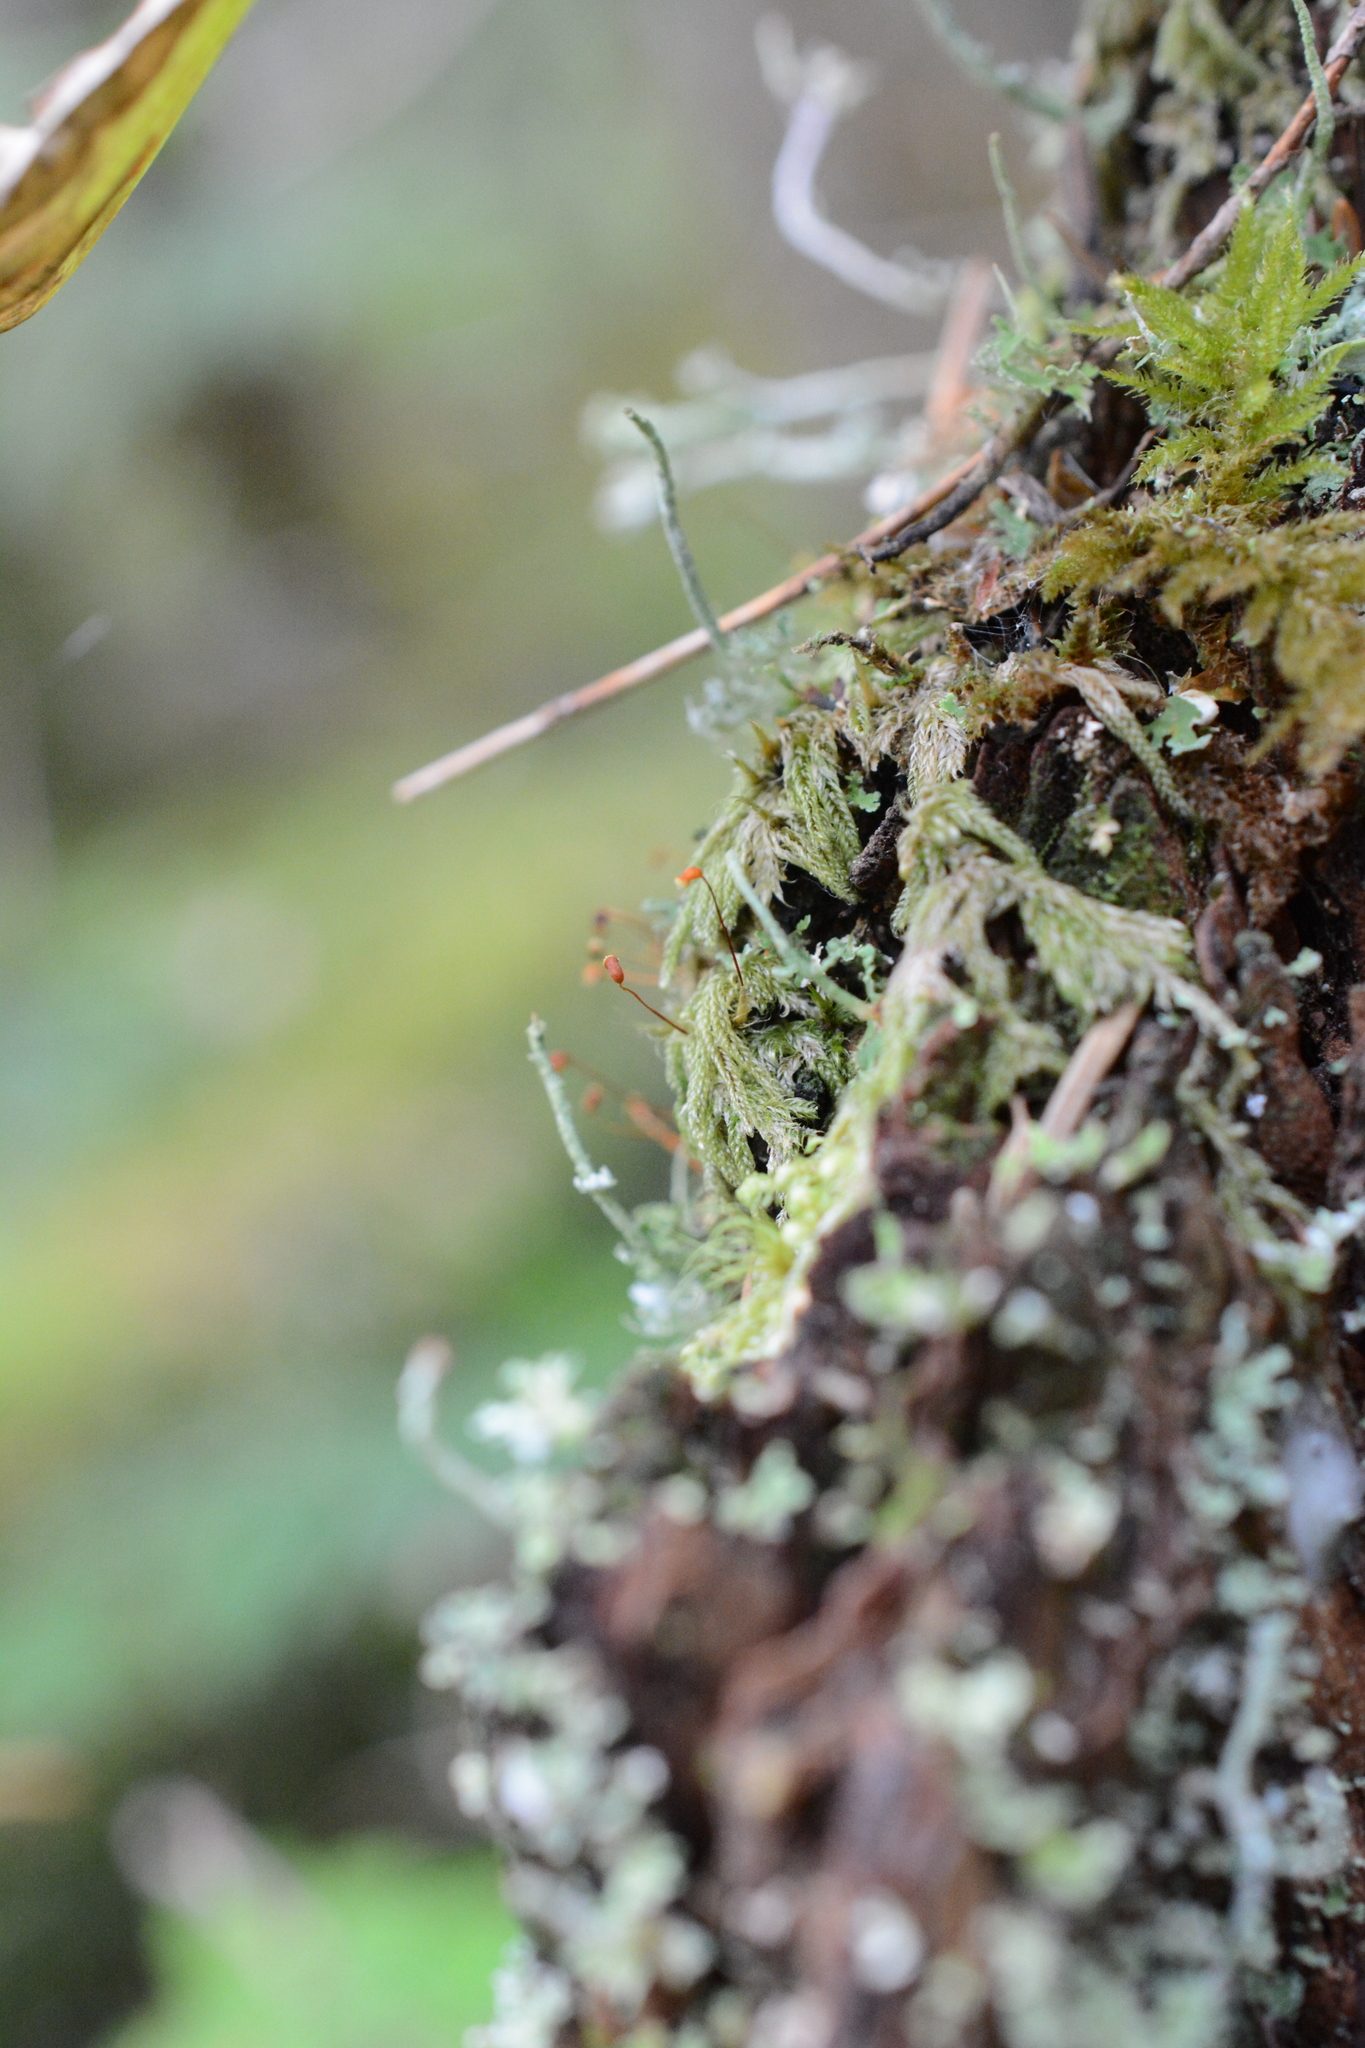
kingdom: Plantae
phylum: Bryophyta
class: Bryopsida
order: Hypnales
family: Pylaisiadelphaceae
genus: Trochophyllohypnum
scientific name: Trochophyllohypnum circinale
